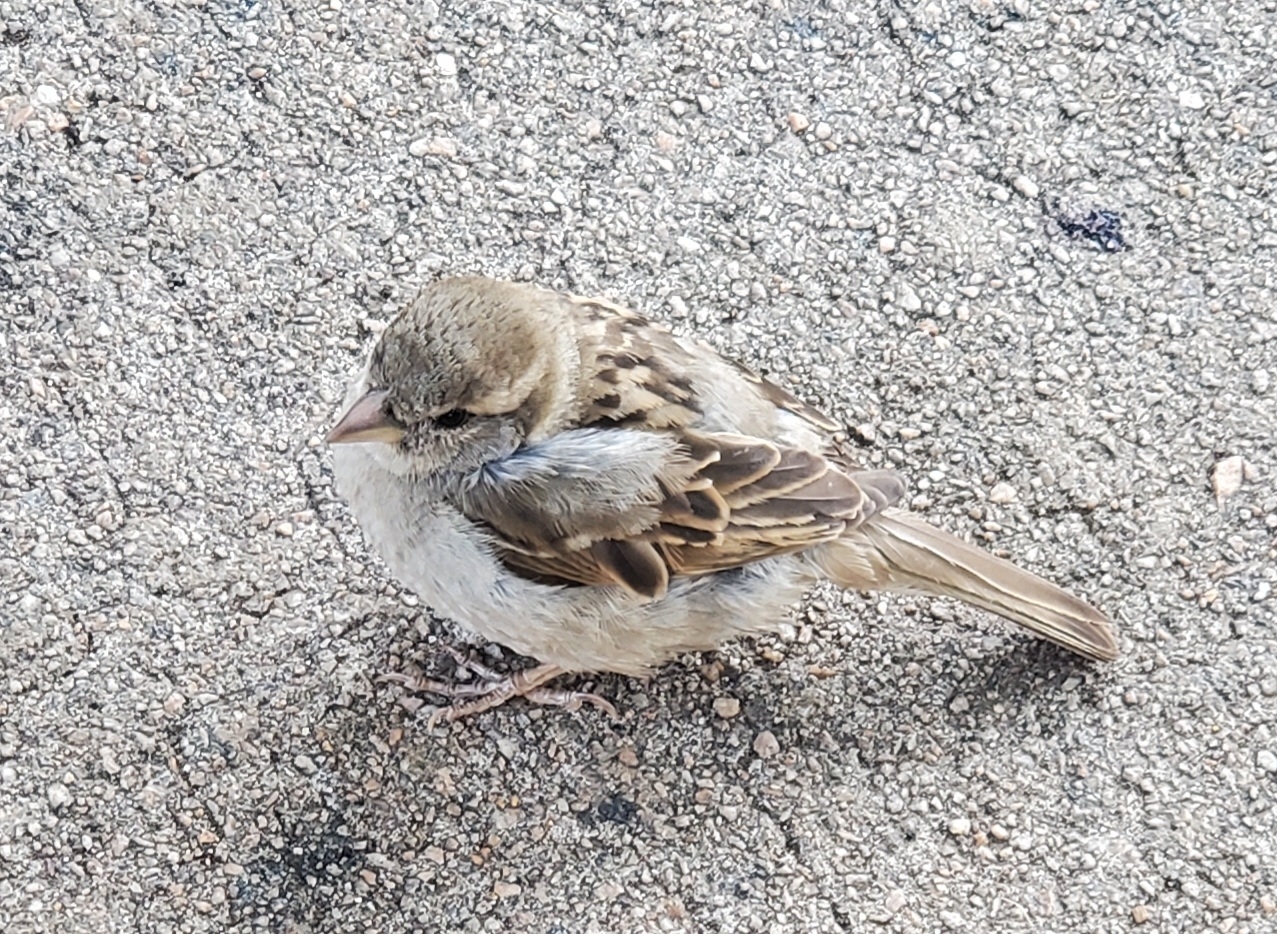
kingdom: Animalia
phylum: Chordata
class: Aves
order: Passeriformes
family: Passeridae
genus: Passer
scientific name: Passer domesticus
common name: House sparrow
